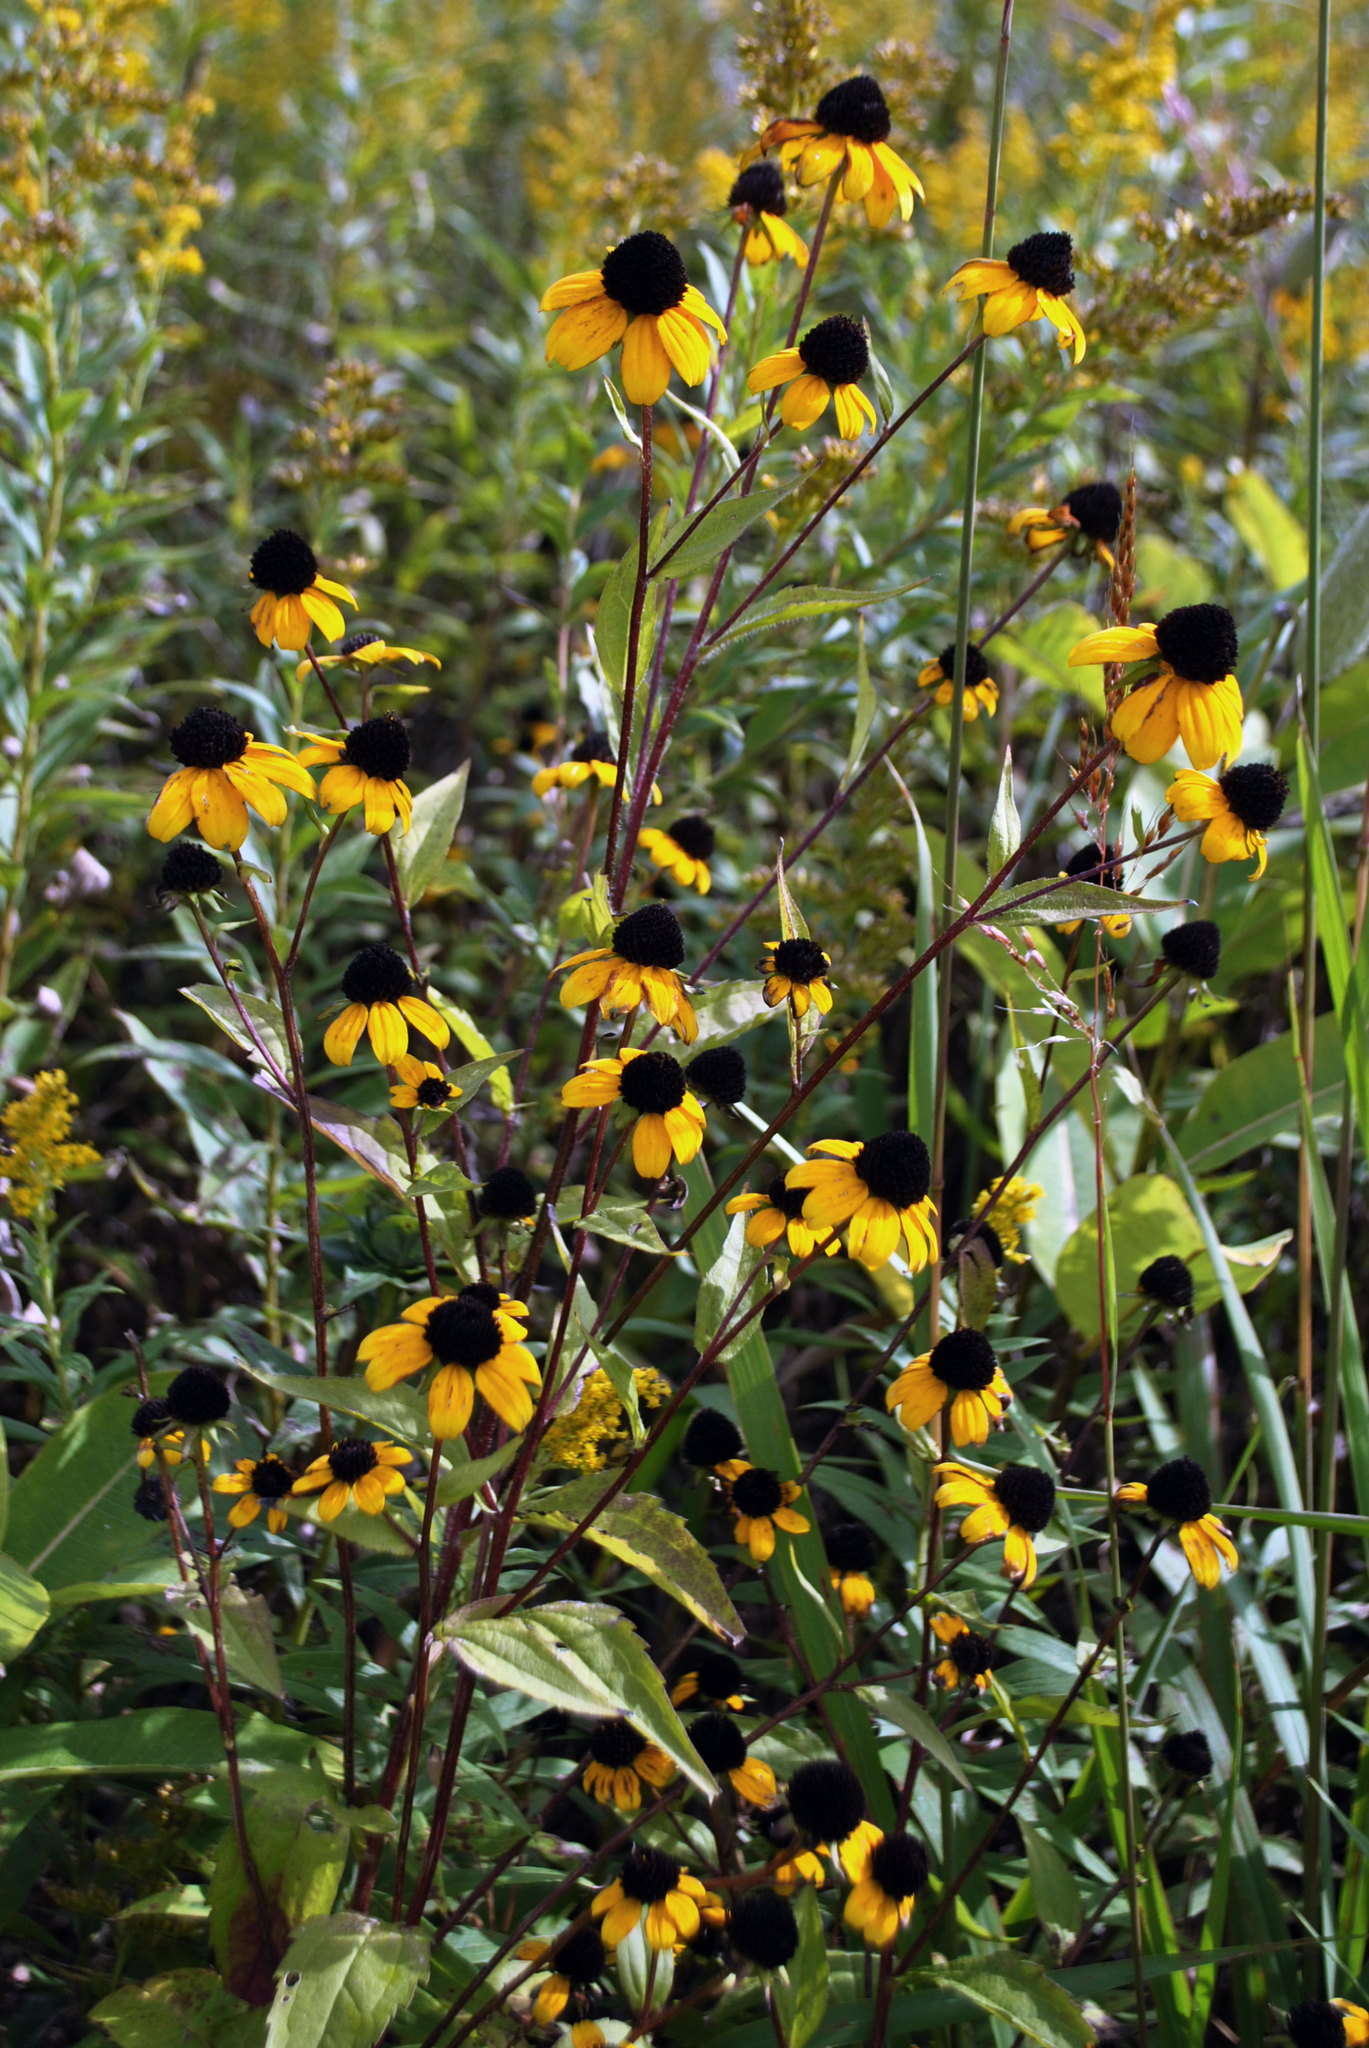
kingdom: Plantae
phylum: Tracheophyta
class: Magnoliopsida
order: Asterales
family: Asteraceae
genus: Rudbeckia
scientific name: Rudbeckia triloba
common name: Thin-leaved coneflower
